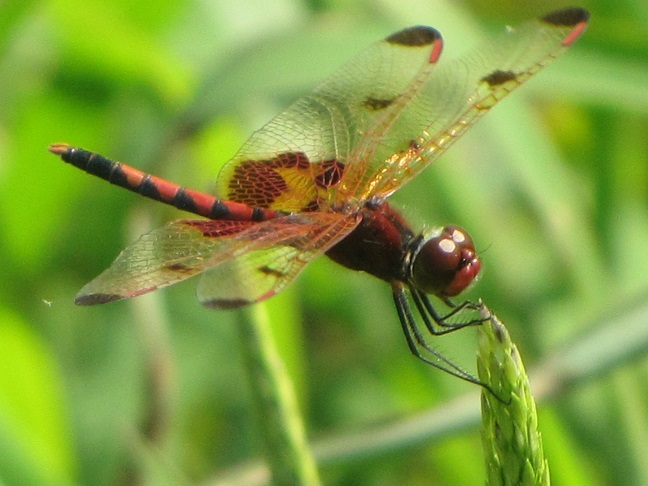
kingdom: Animalia
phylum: Arthropoda
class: Insecta
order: Odonata
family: Libellulidae
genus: Celithemis
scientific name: Celithemis elisa
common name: Calico pennant
